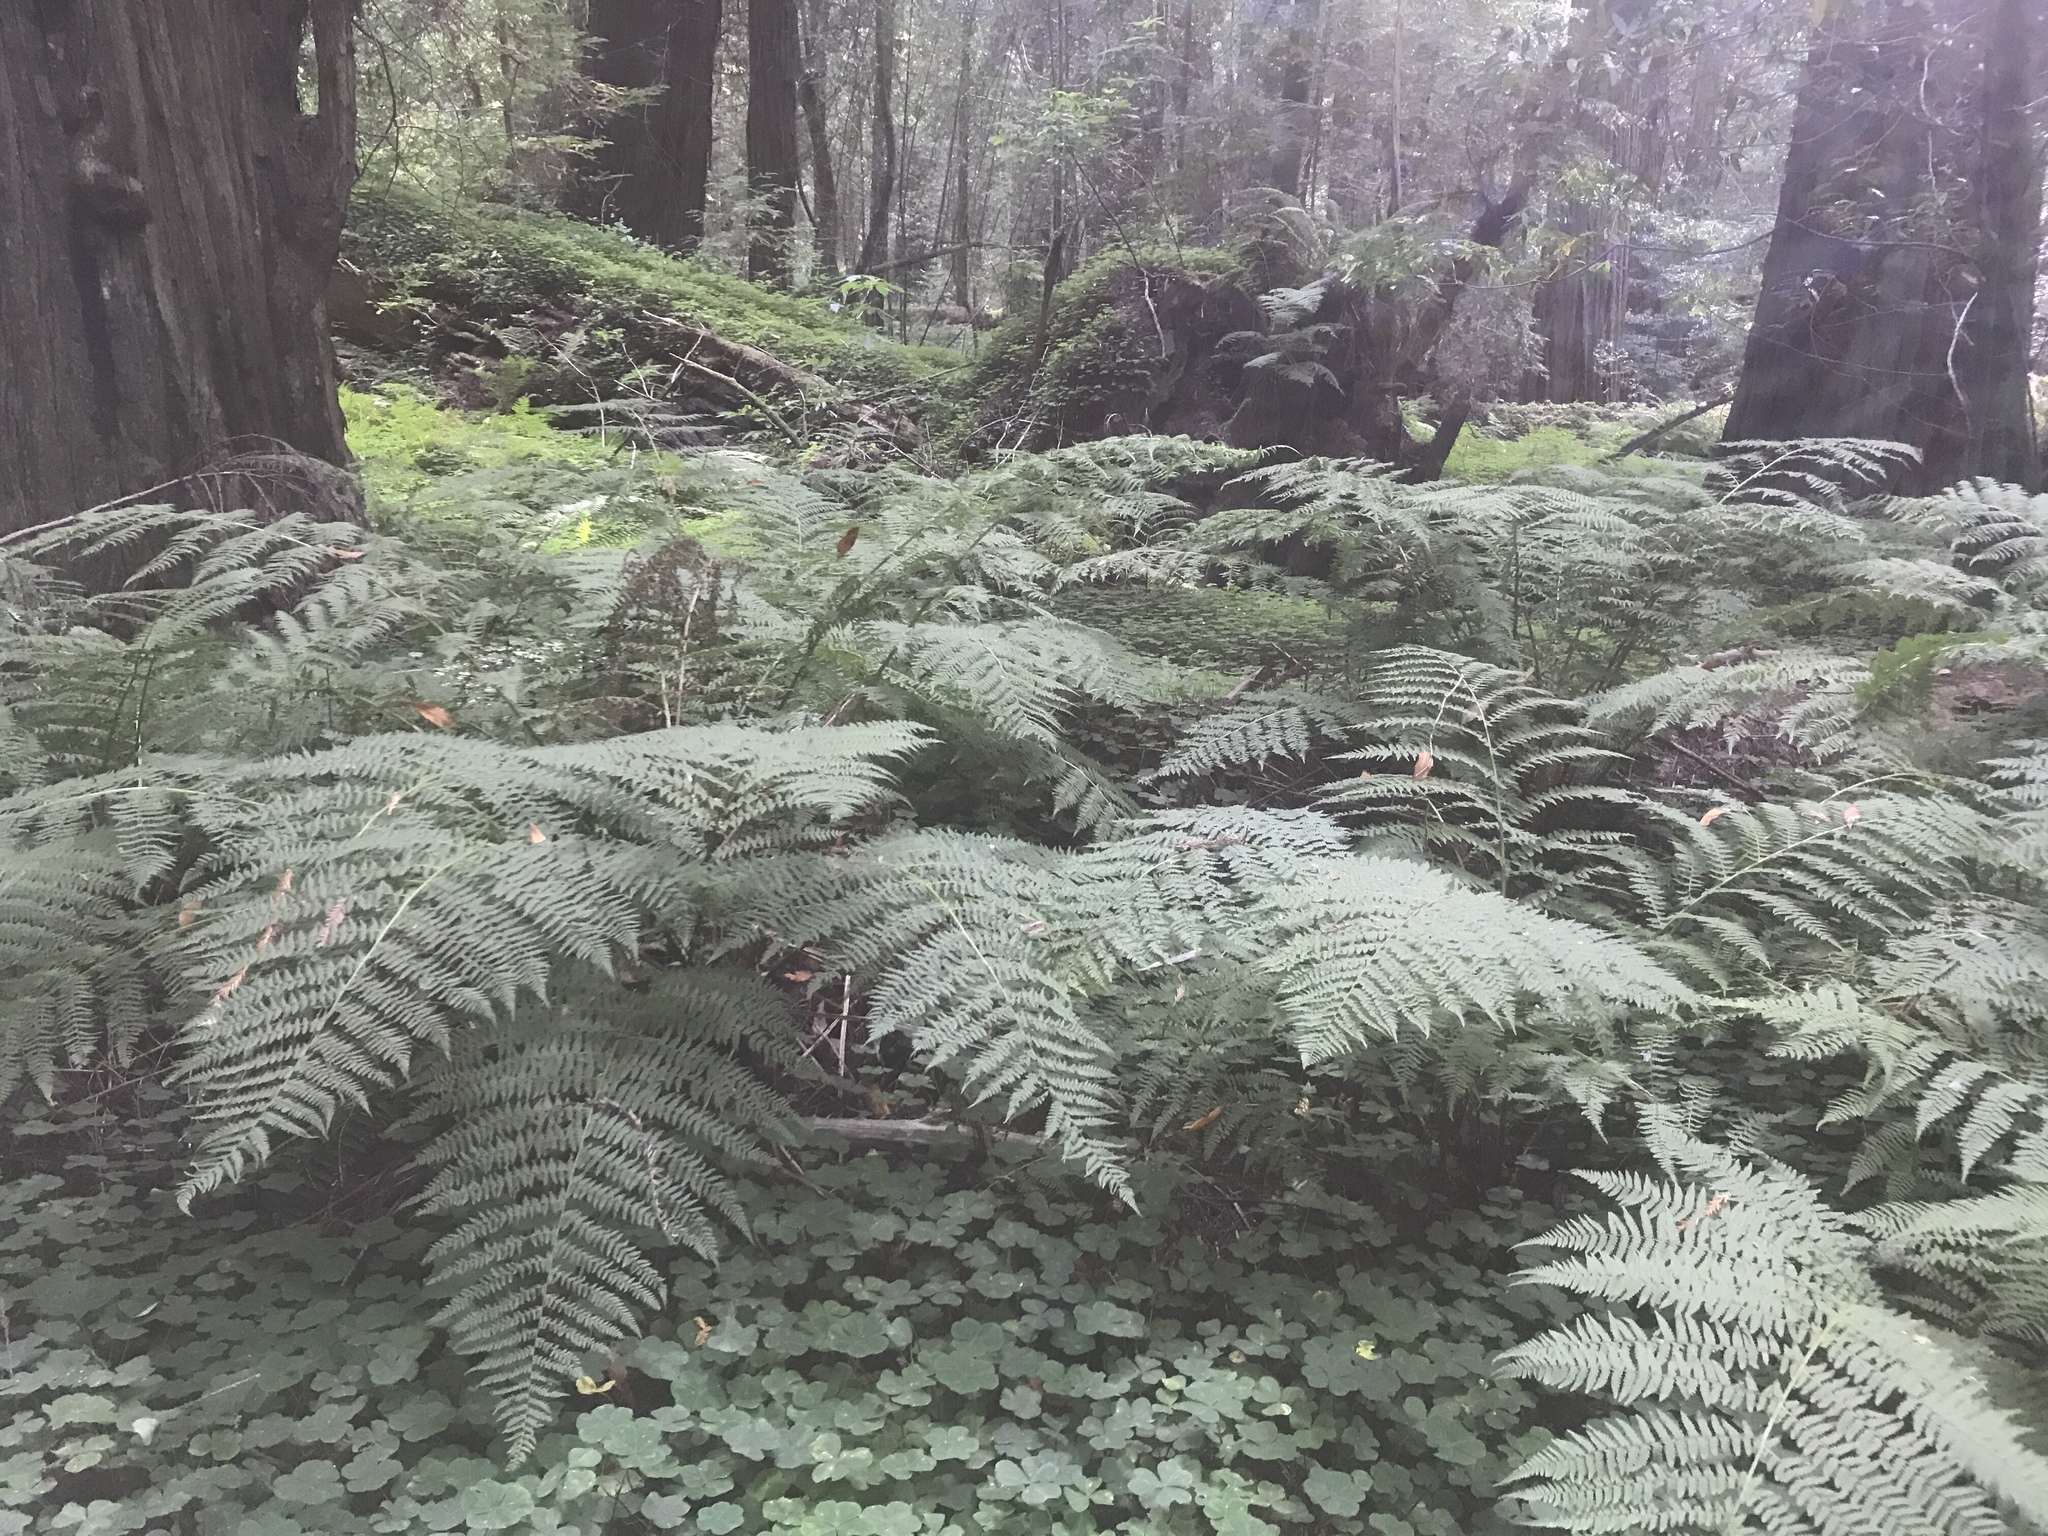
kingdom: Plantae
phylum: Tracheophyta
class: Polypodiopsida
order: Polypodiales
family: Athyriaceae
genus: Athyrium
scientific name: Athyrium cyclosorum
